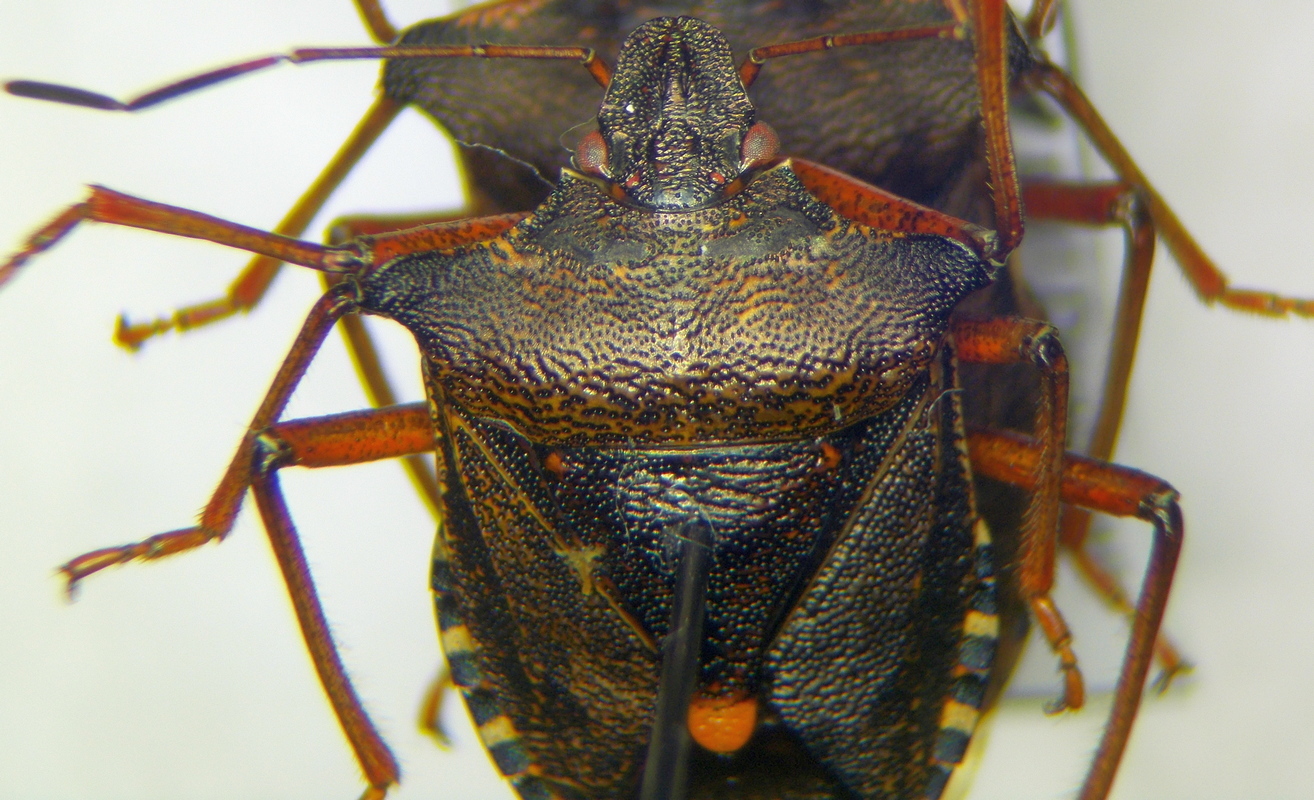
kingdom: Animalia
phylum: Arthropoda
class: Insecta
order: Hemiptera
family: Pentatomidae
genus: Pentatoma
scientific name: Pentatoma rufipes
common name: Forest bug
